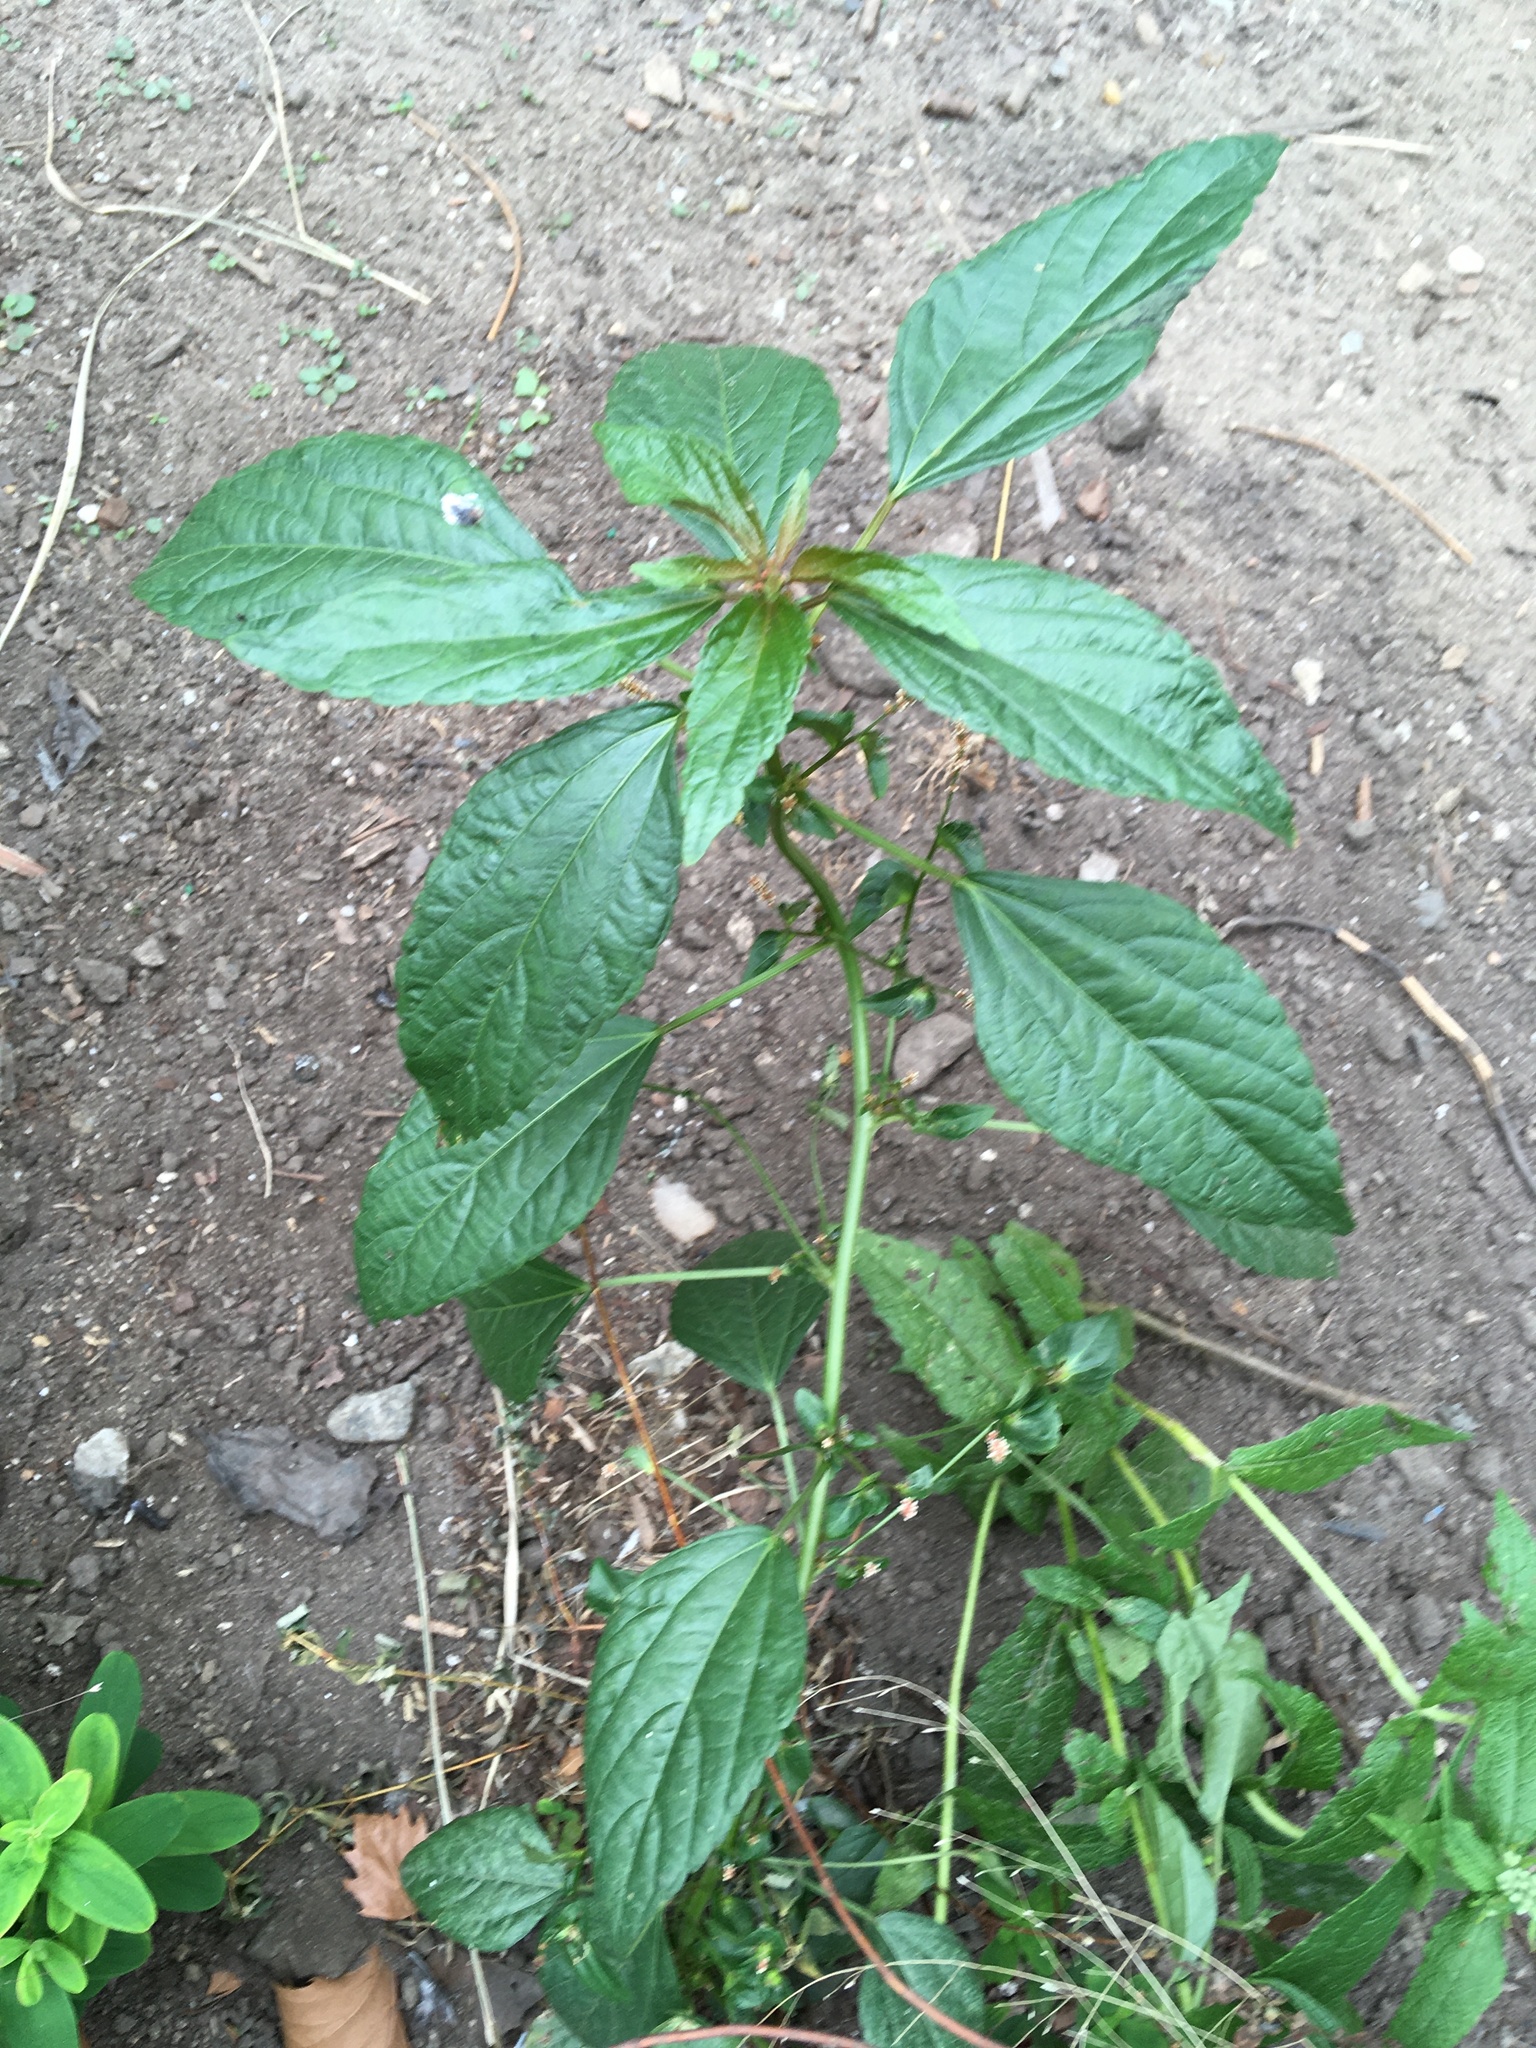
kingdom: Plantae
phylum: Tracheophyta
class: Magnoliopsida
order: Malpighiales
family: Euphorbiaceae
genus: Acalypha
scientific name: Acalypha australis
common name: Asian copperleaf
